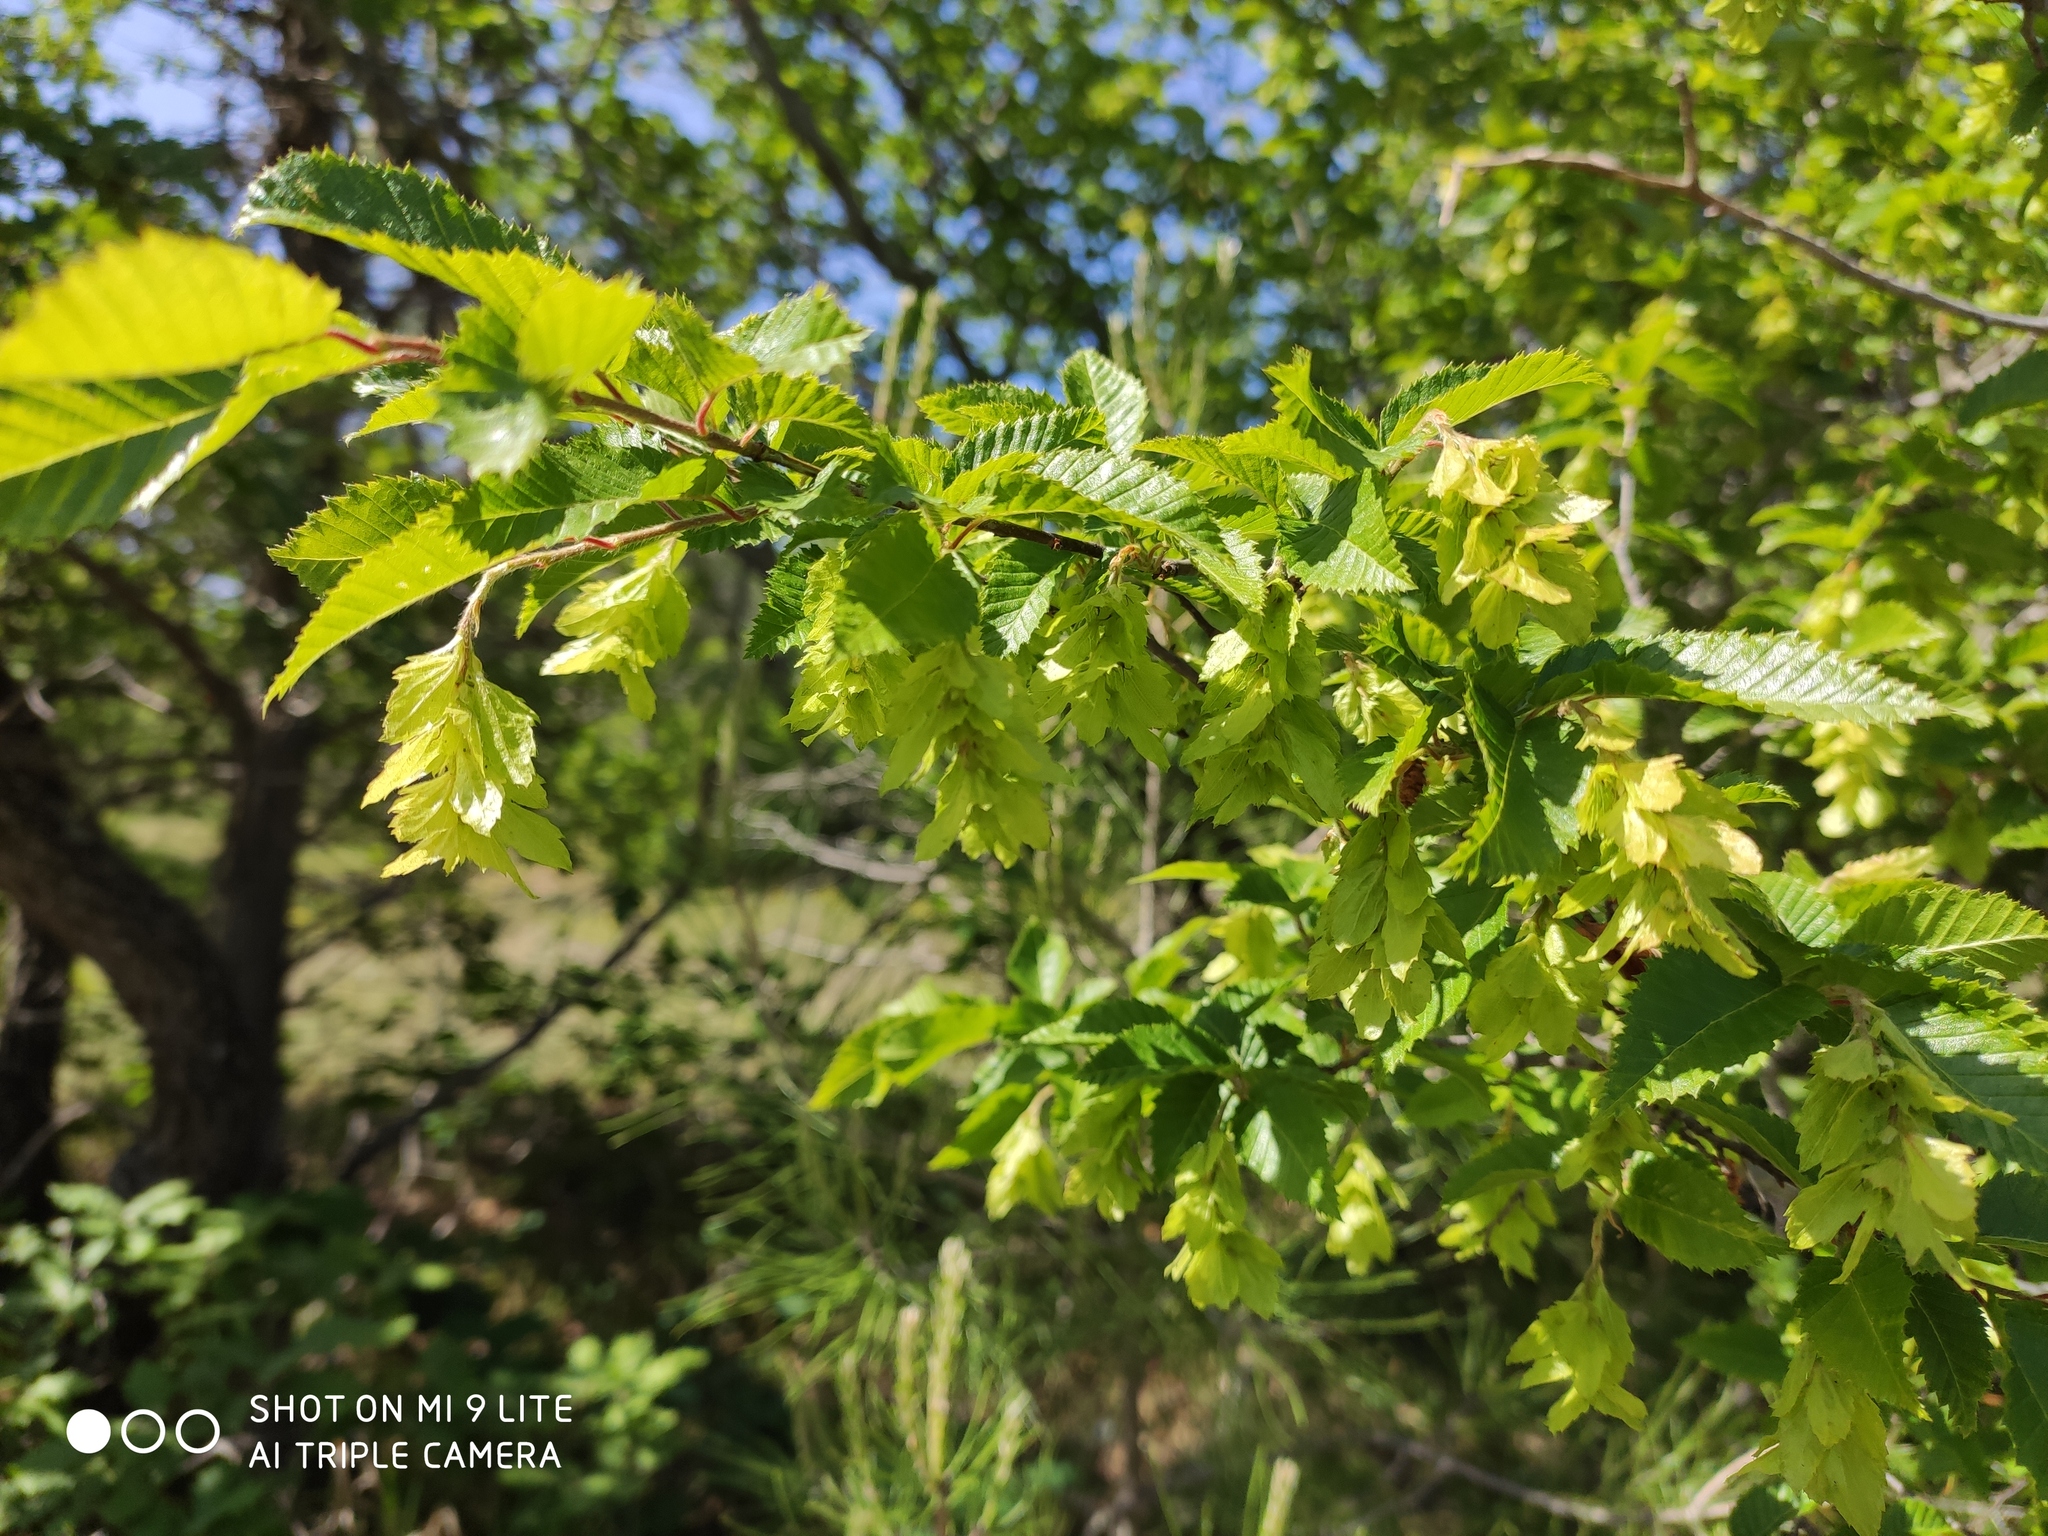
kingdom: Plantae
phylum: Tracheophyta
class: Magnoliopsida
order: Fagales
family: Betulaceae
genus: Carpinus
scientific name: Carpinus orientalis
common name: Eastern hornbeam
